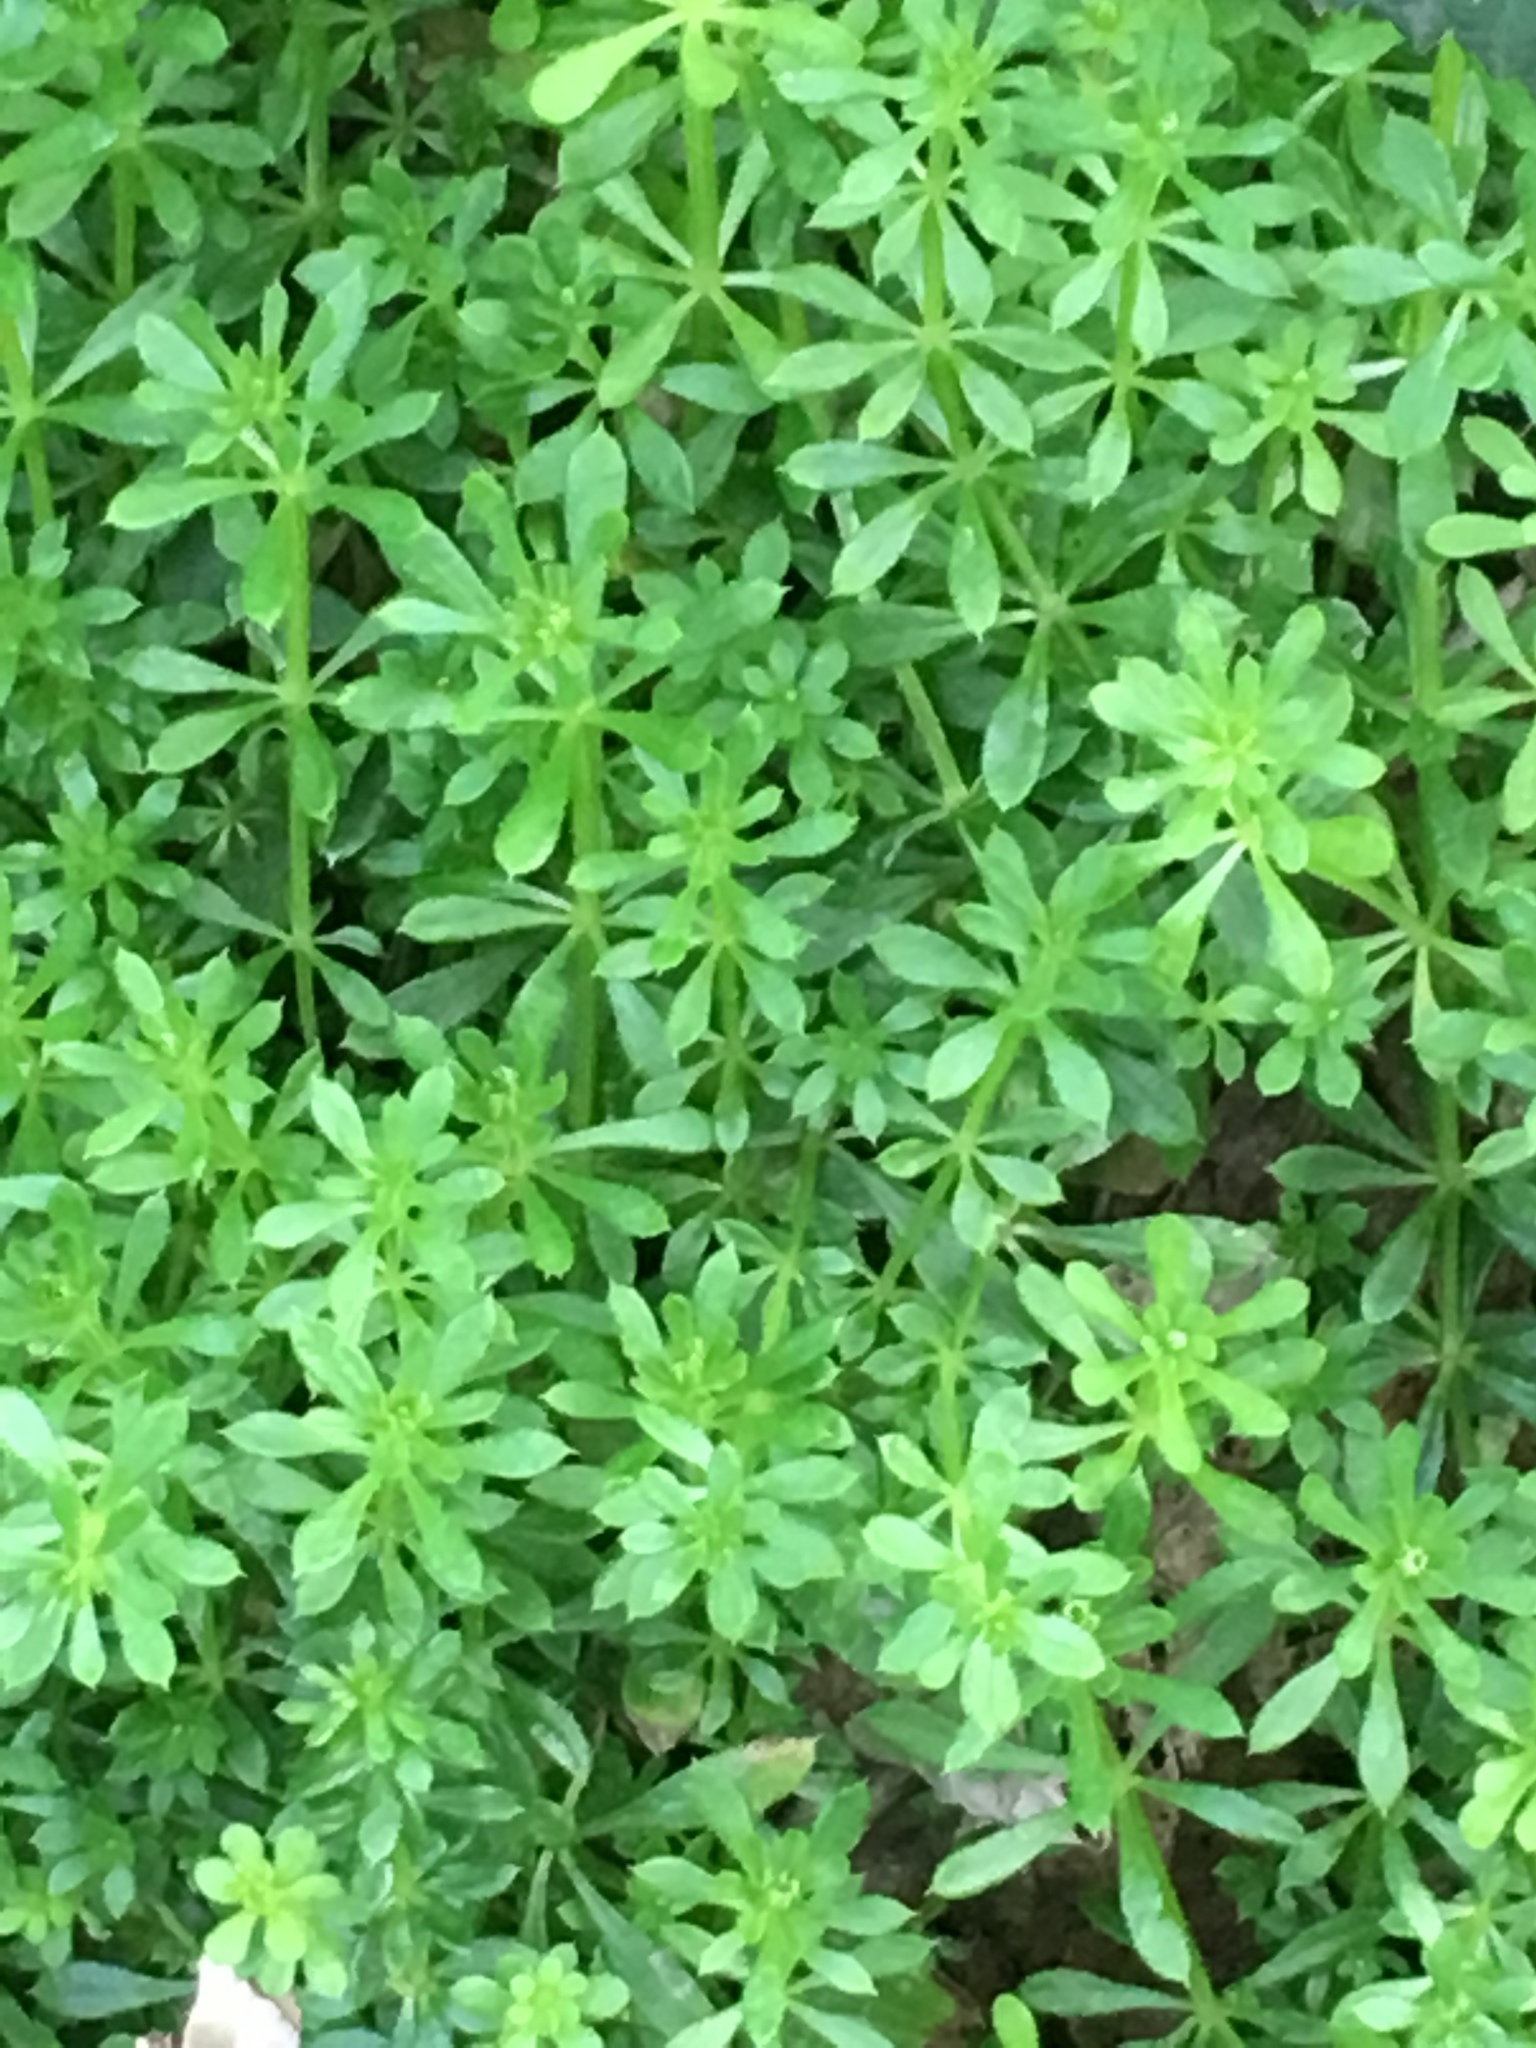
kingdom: Plantae
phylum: Tracheophyta
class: Magnoliopsida
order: Gentianales
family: Rubiaceae
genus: Galium
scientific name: Galium aparine
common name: Cleavers
